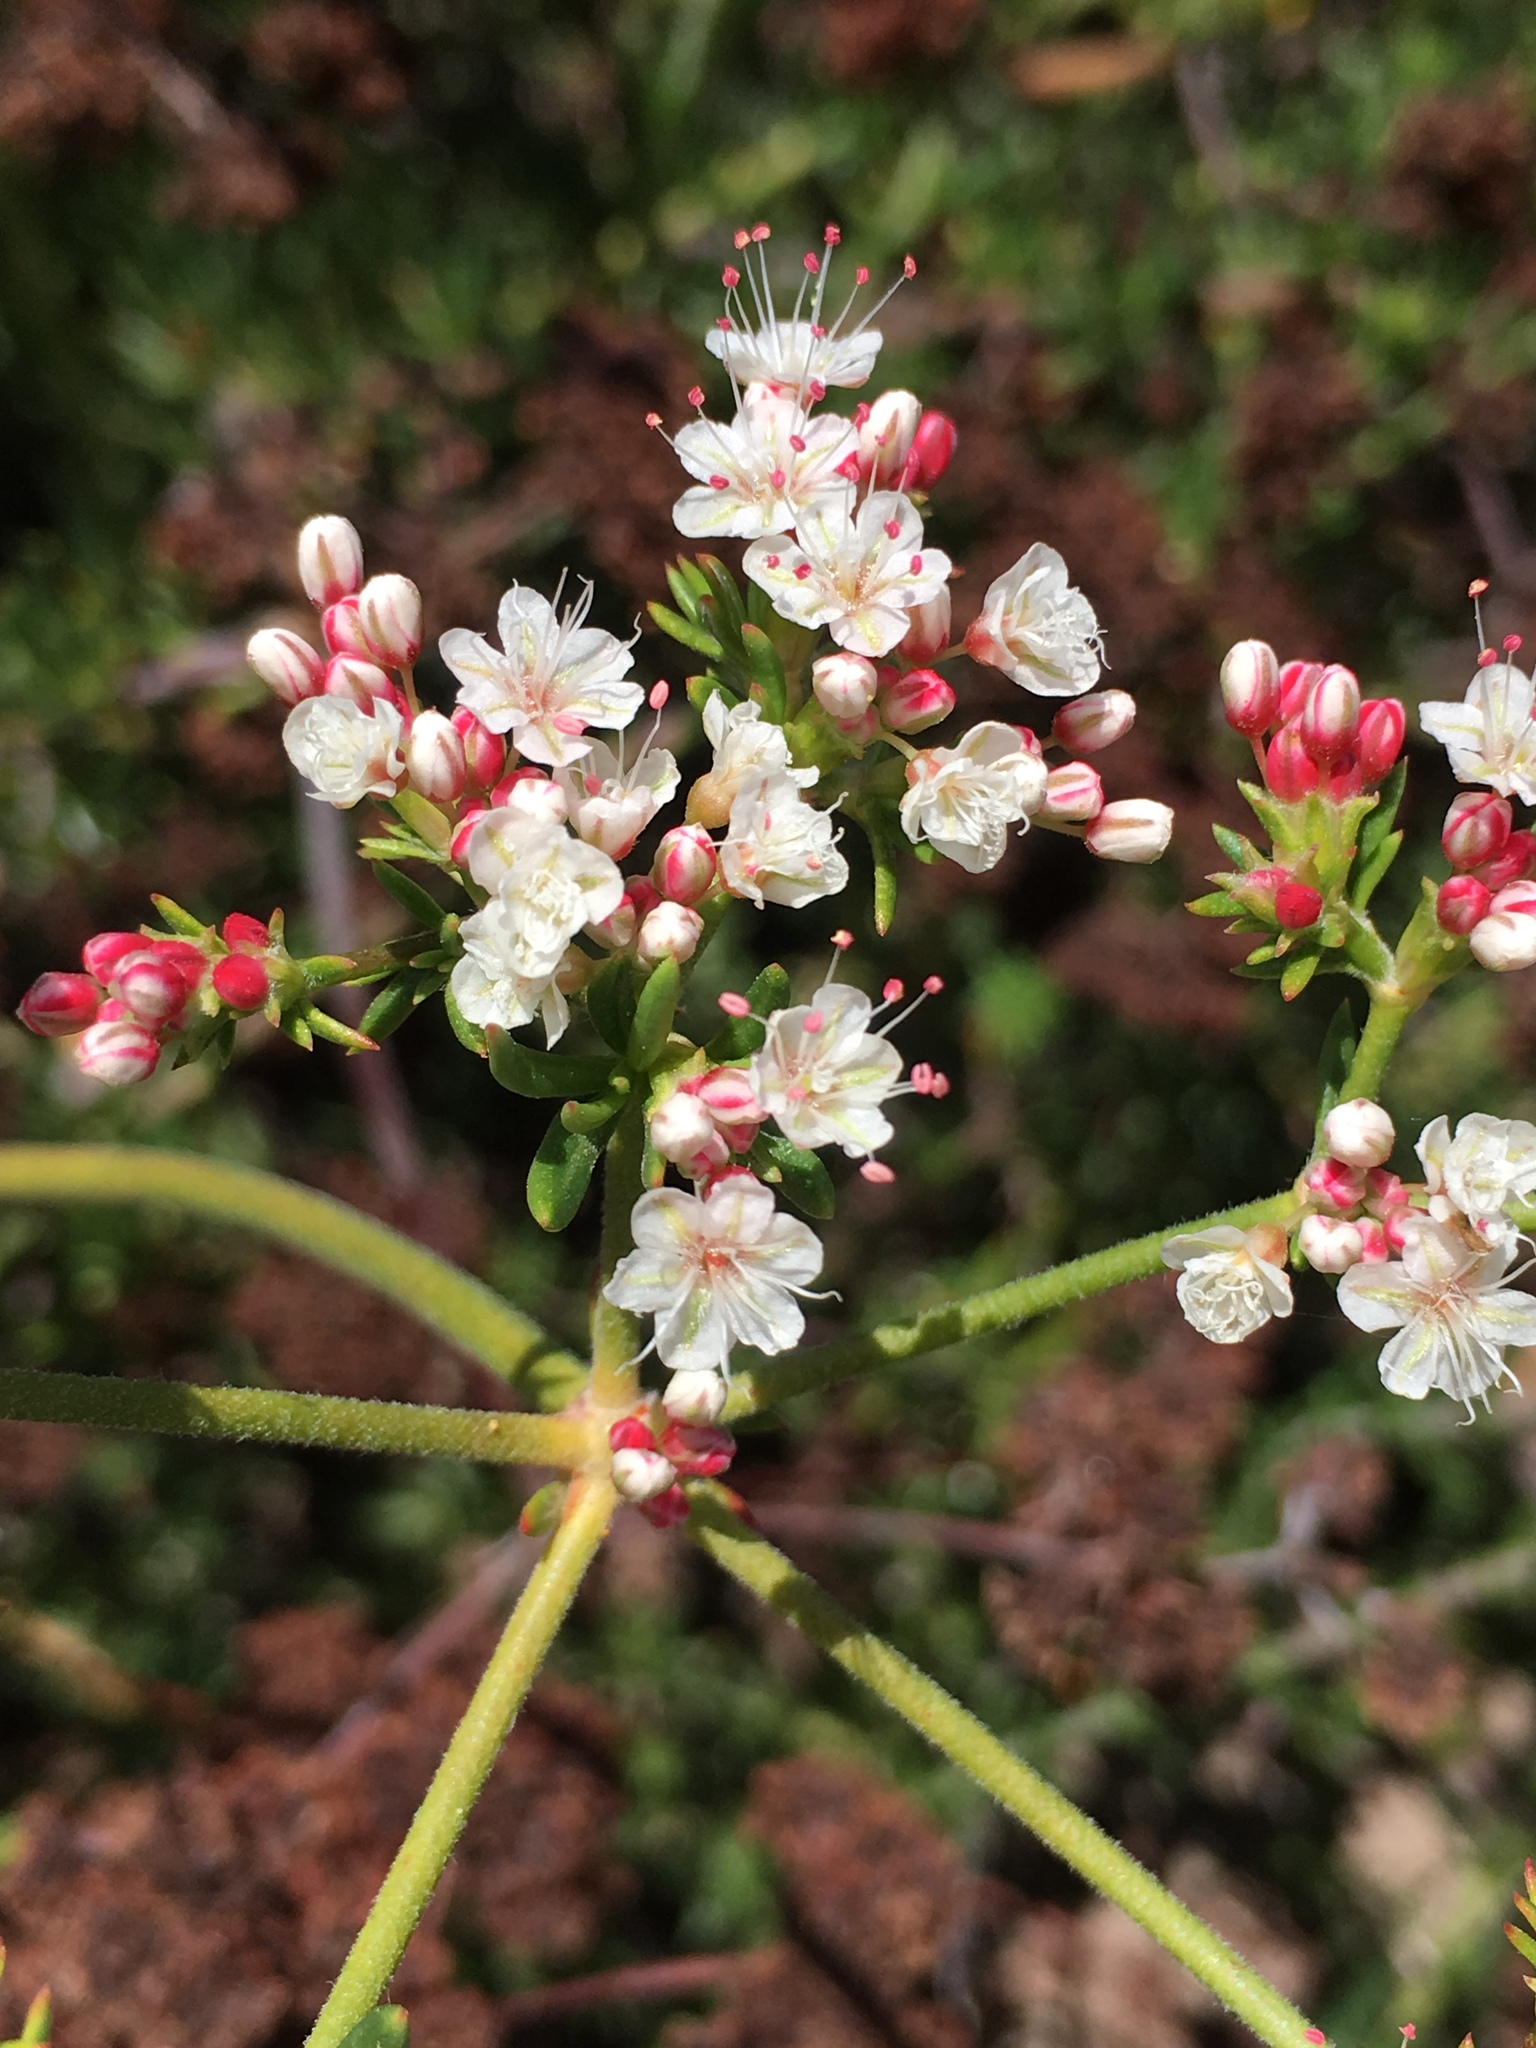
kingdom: Plantae
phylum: Tracheophyta
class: Magnoliopsida
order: Caryophyllales
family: Polygonaceae
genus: Eriogonum
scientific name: Eriogonum fasciculatum
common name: California wild buckwheat
